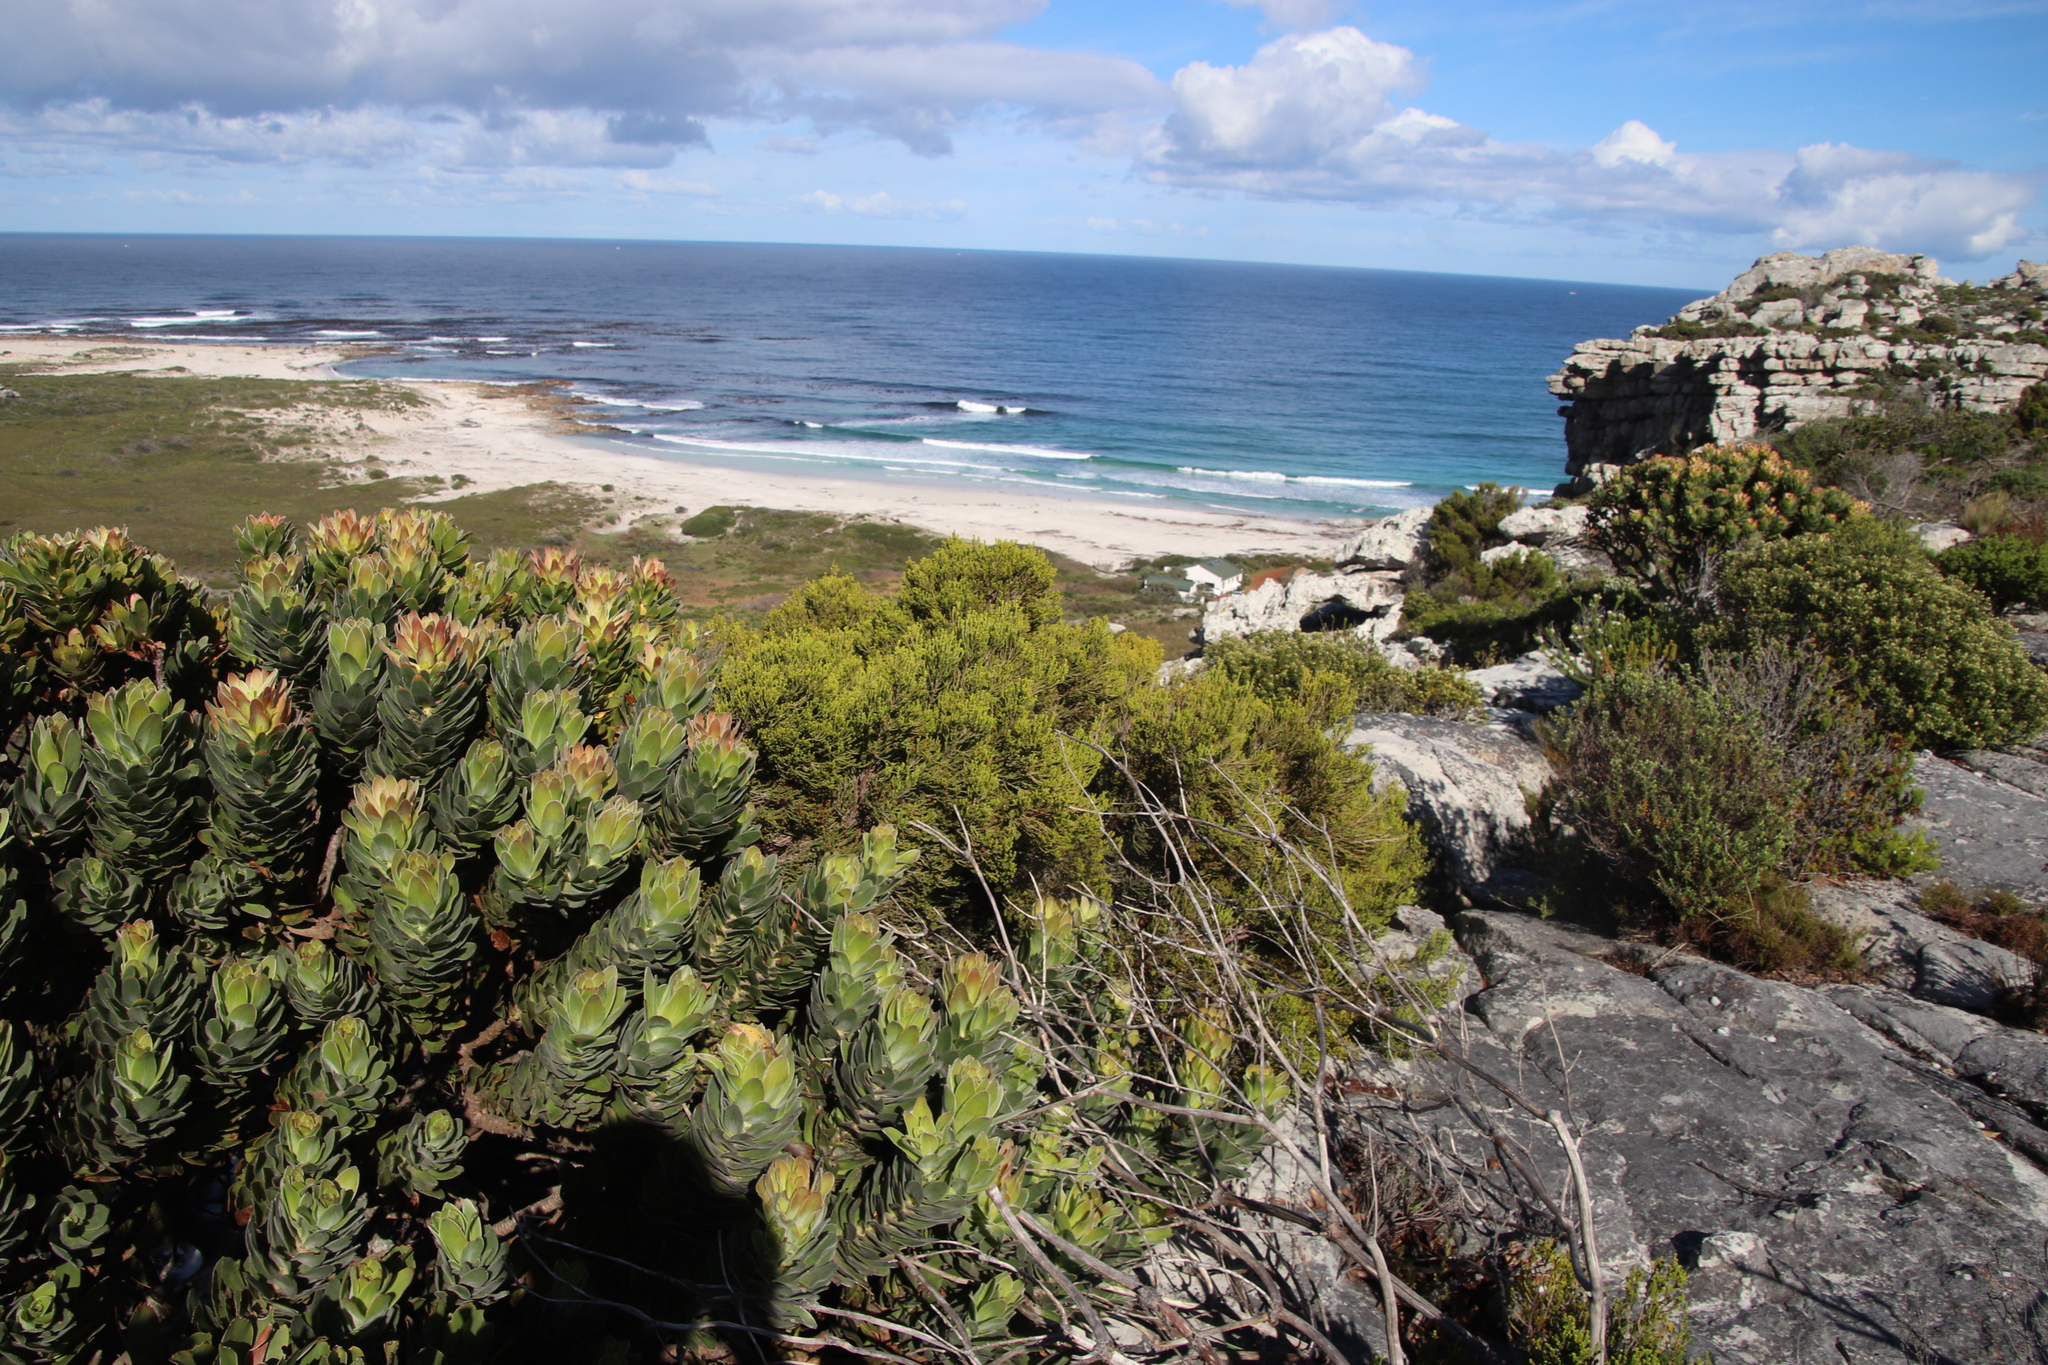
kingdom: Plantae
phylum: Tracheophyta
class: Magnoliopsida
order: Ericales
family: Ericaceae
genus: Erica
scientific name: Erica tristis
